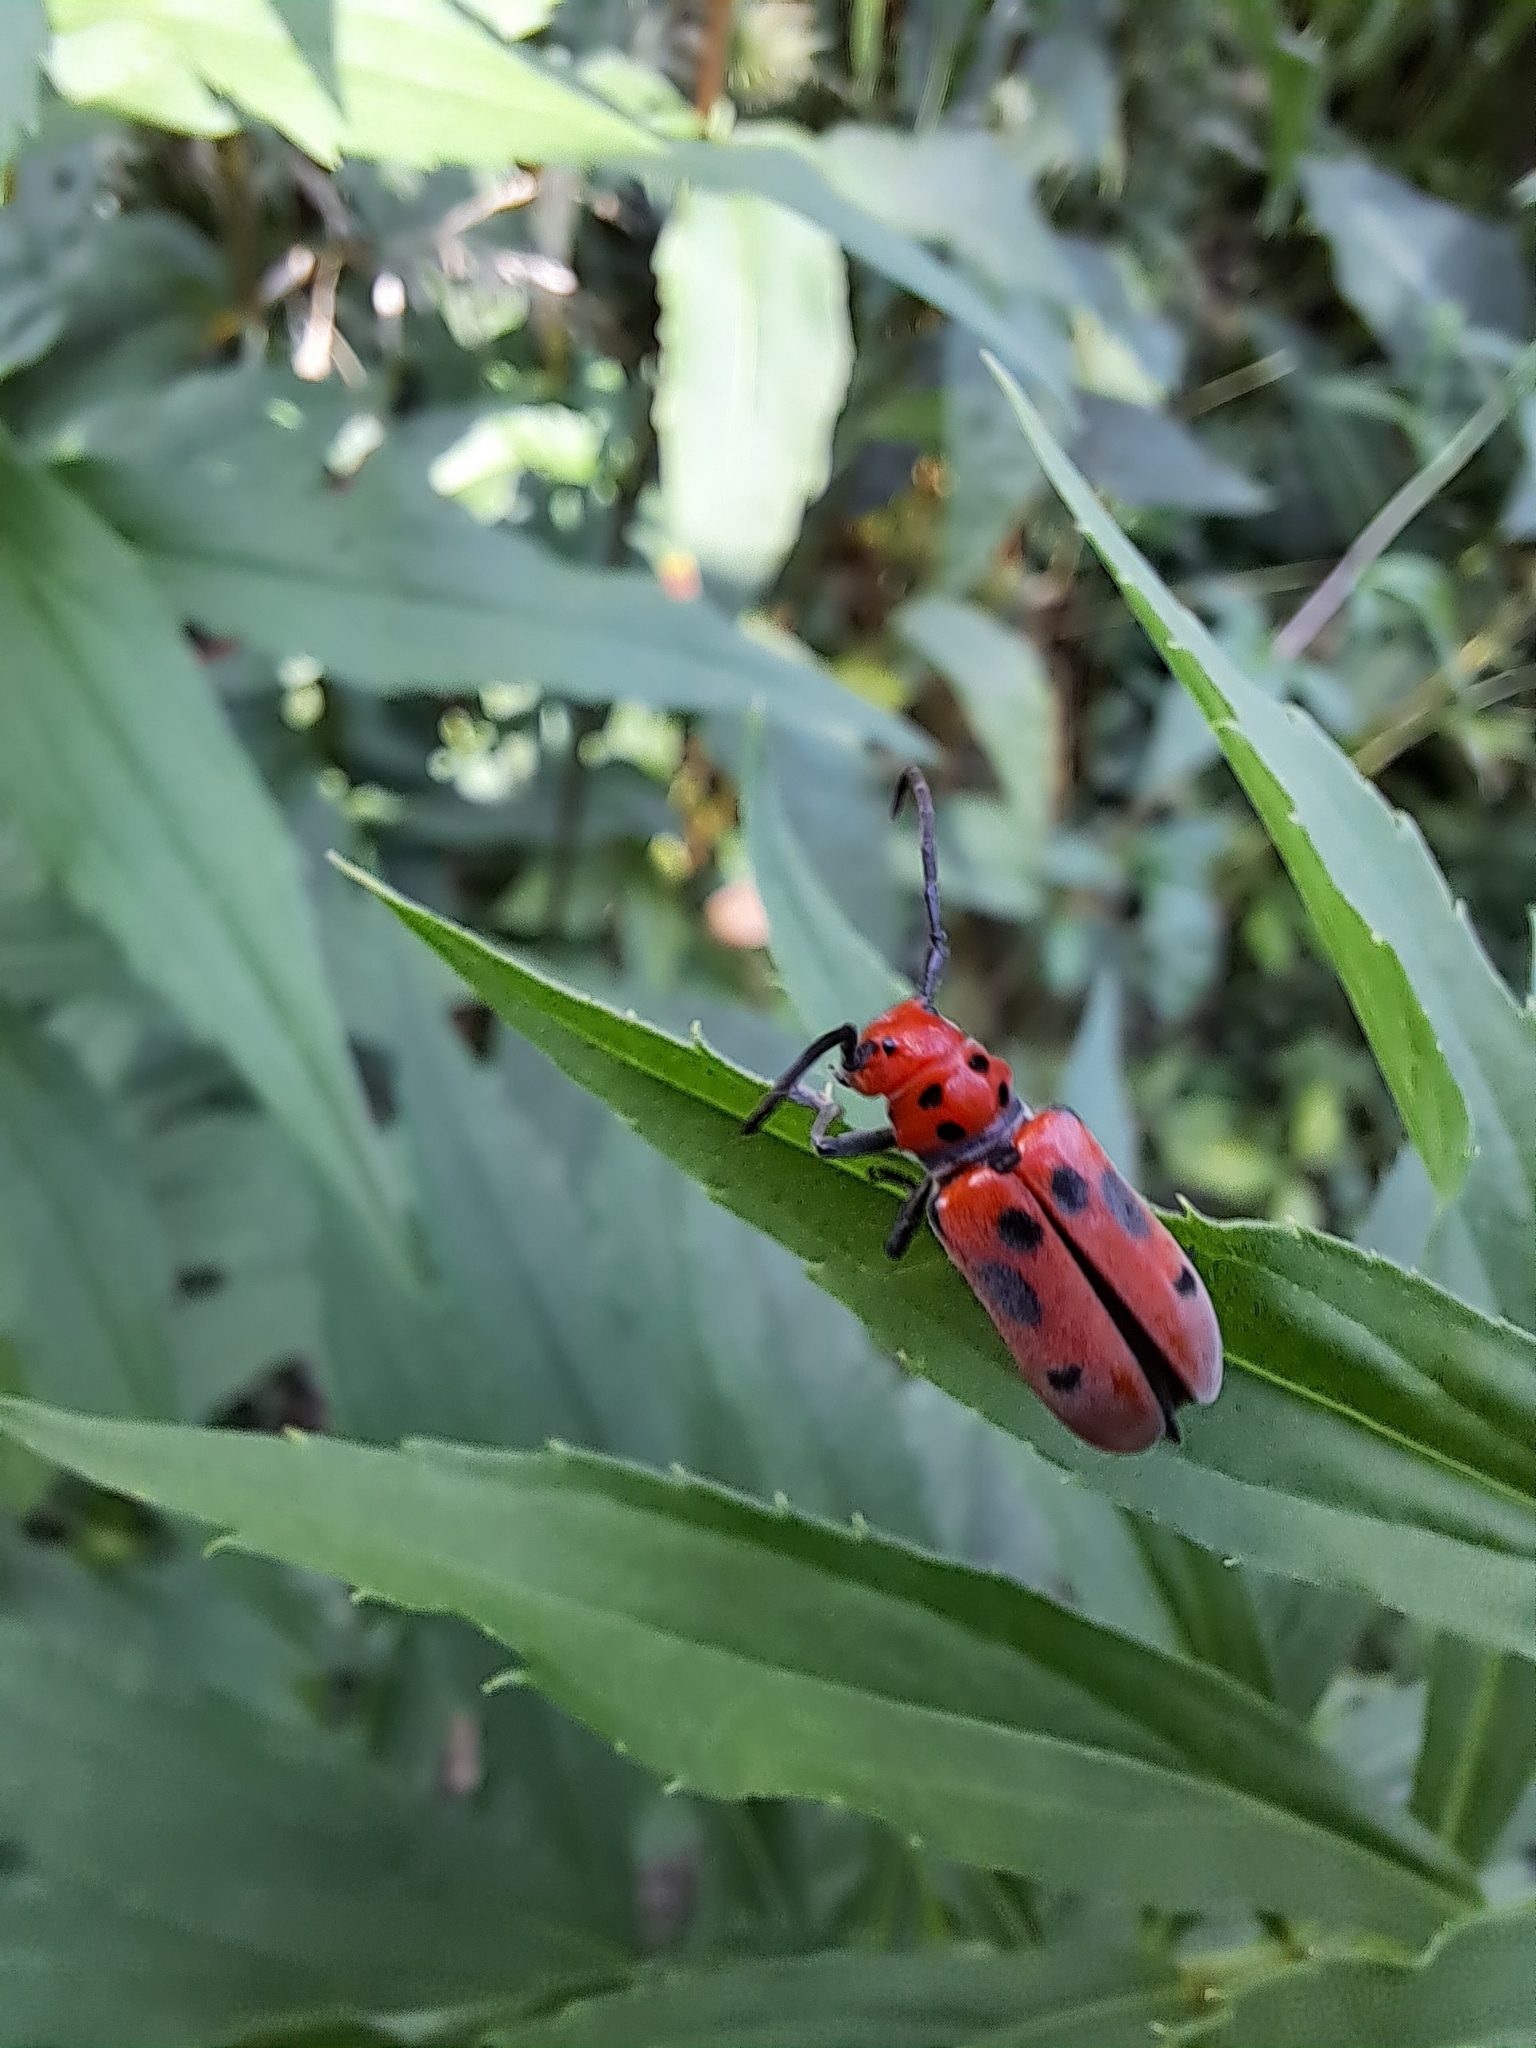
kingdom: Animalia
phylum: Arthropoda
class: Insecta
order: Coleoptera
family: Cerambycidae
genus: Tetraopes
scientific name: Tetraopes tetrophthalmus
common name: Red milkweed beetle
